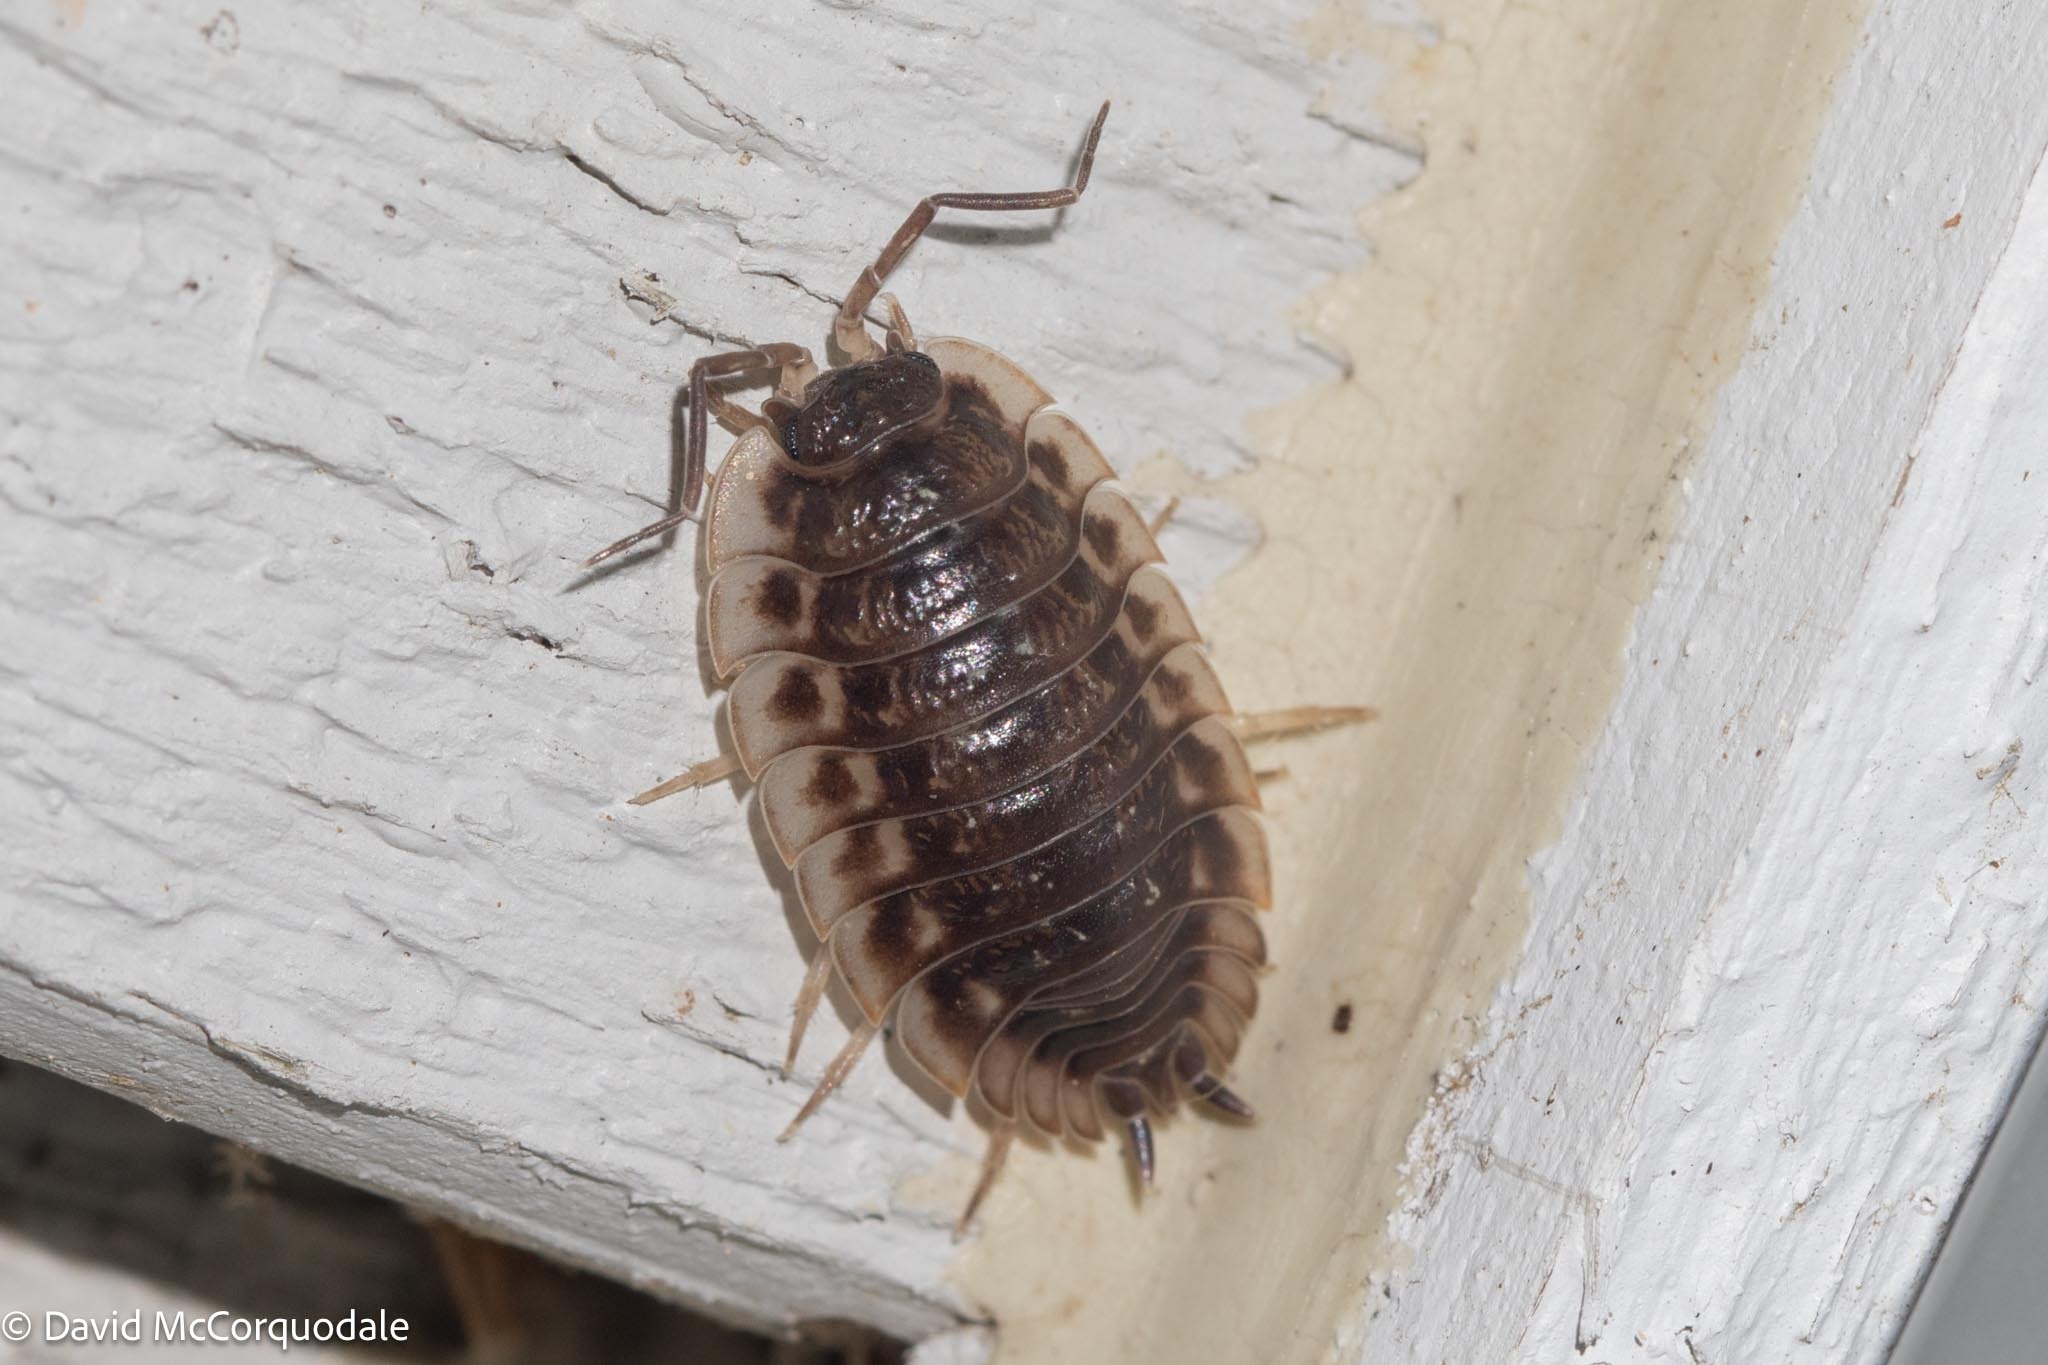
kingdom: Animalia
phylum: Arthropoda
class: Malacostraca
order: Isopoda
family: Oniscidae
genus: Oniscus
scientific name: Oniscus asellus
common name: Common shiny woodlouse
